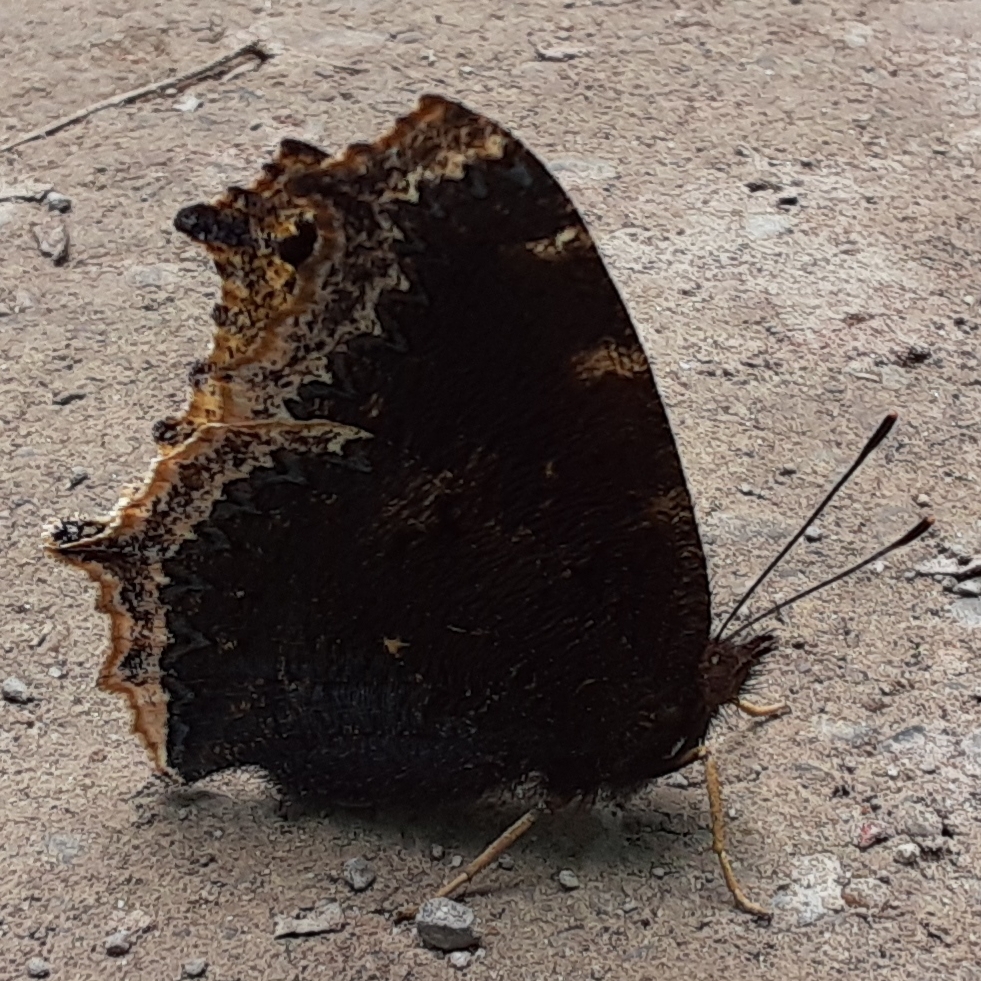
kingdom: Animalia
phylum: Arthropoda
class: Insecta
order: Lepidoptera
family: Nymphalidae
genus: Nymphalis
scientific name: Nymphalis antiopa
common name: Camberwell beauty
